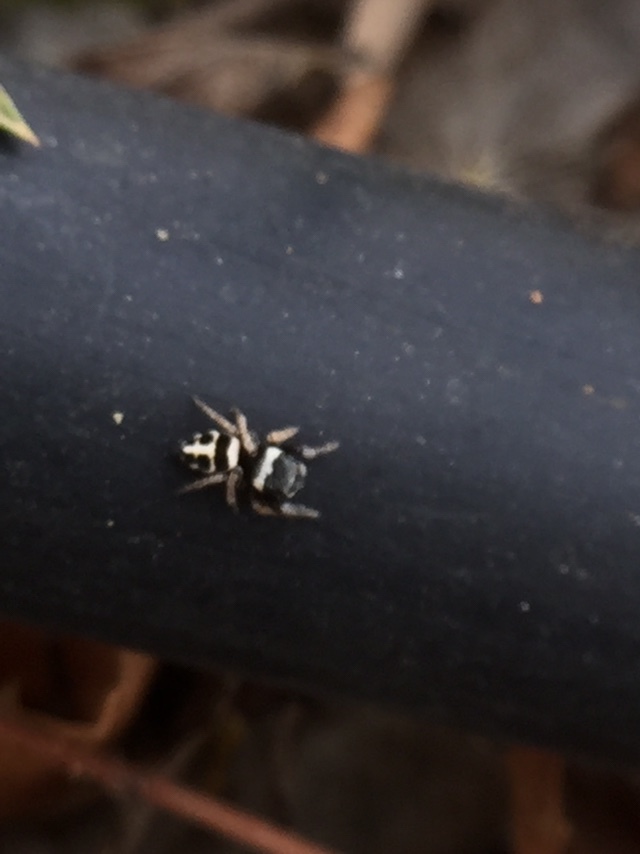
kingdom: Animalia
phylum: Arthropoda
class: Arachnida
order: Araneae
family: Salticidae
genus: Pellenes
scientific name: Pellenes iva
